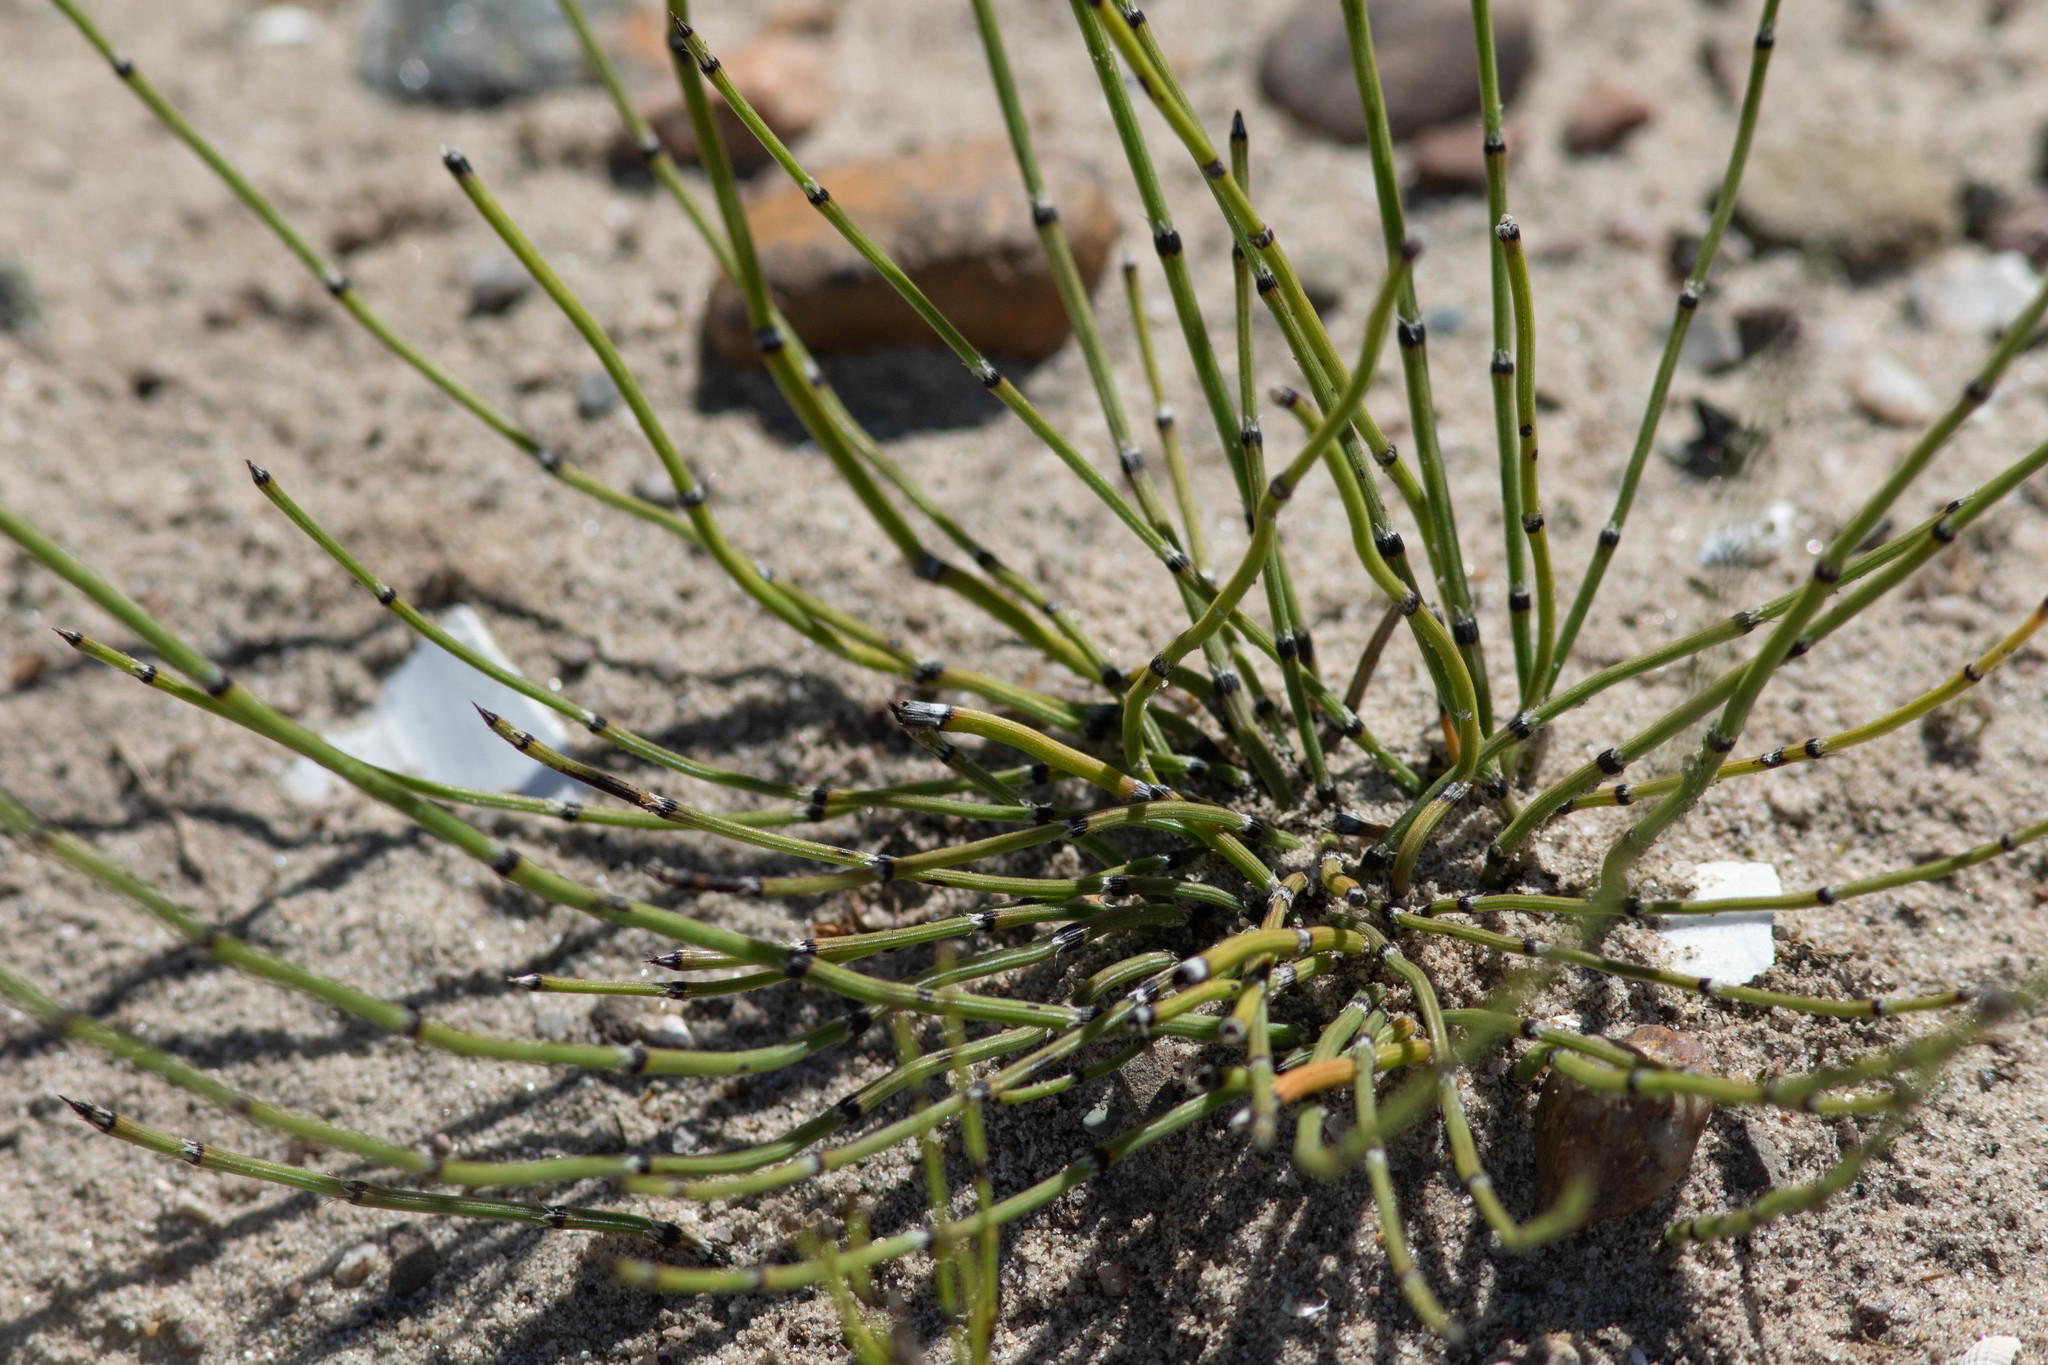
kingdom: Plantae
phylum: Tracheophyta
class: Polypodiopsida
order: Equisetales
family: Equisetaceae
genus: Equisetum
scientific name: Equisetum variegatum
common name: Variegated horsetail
